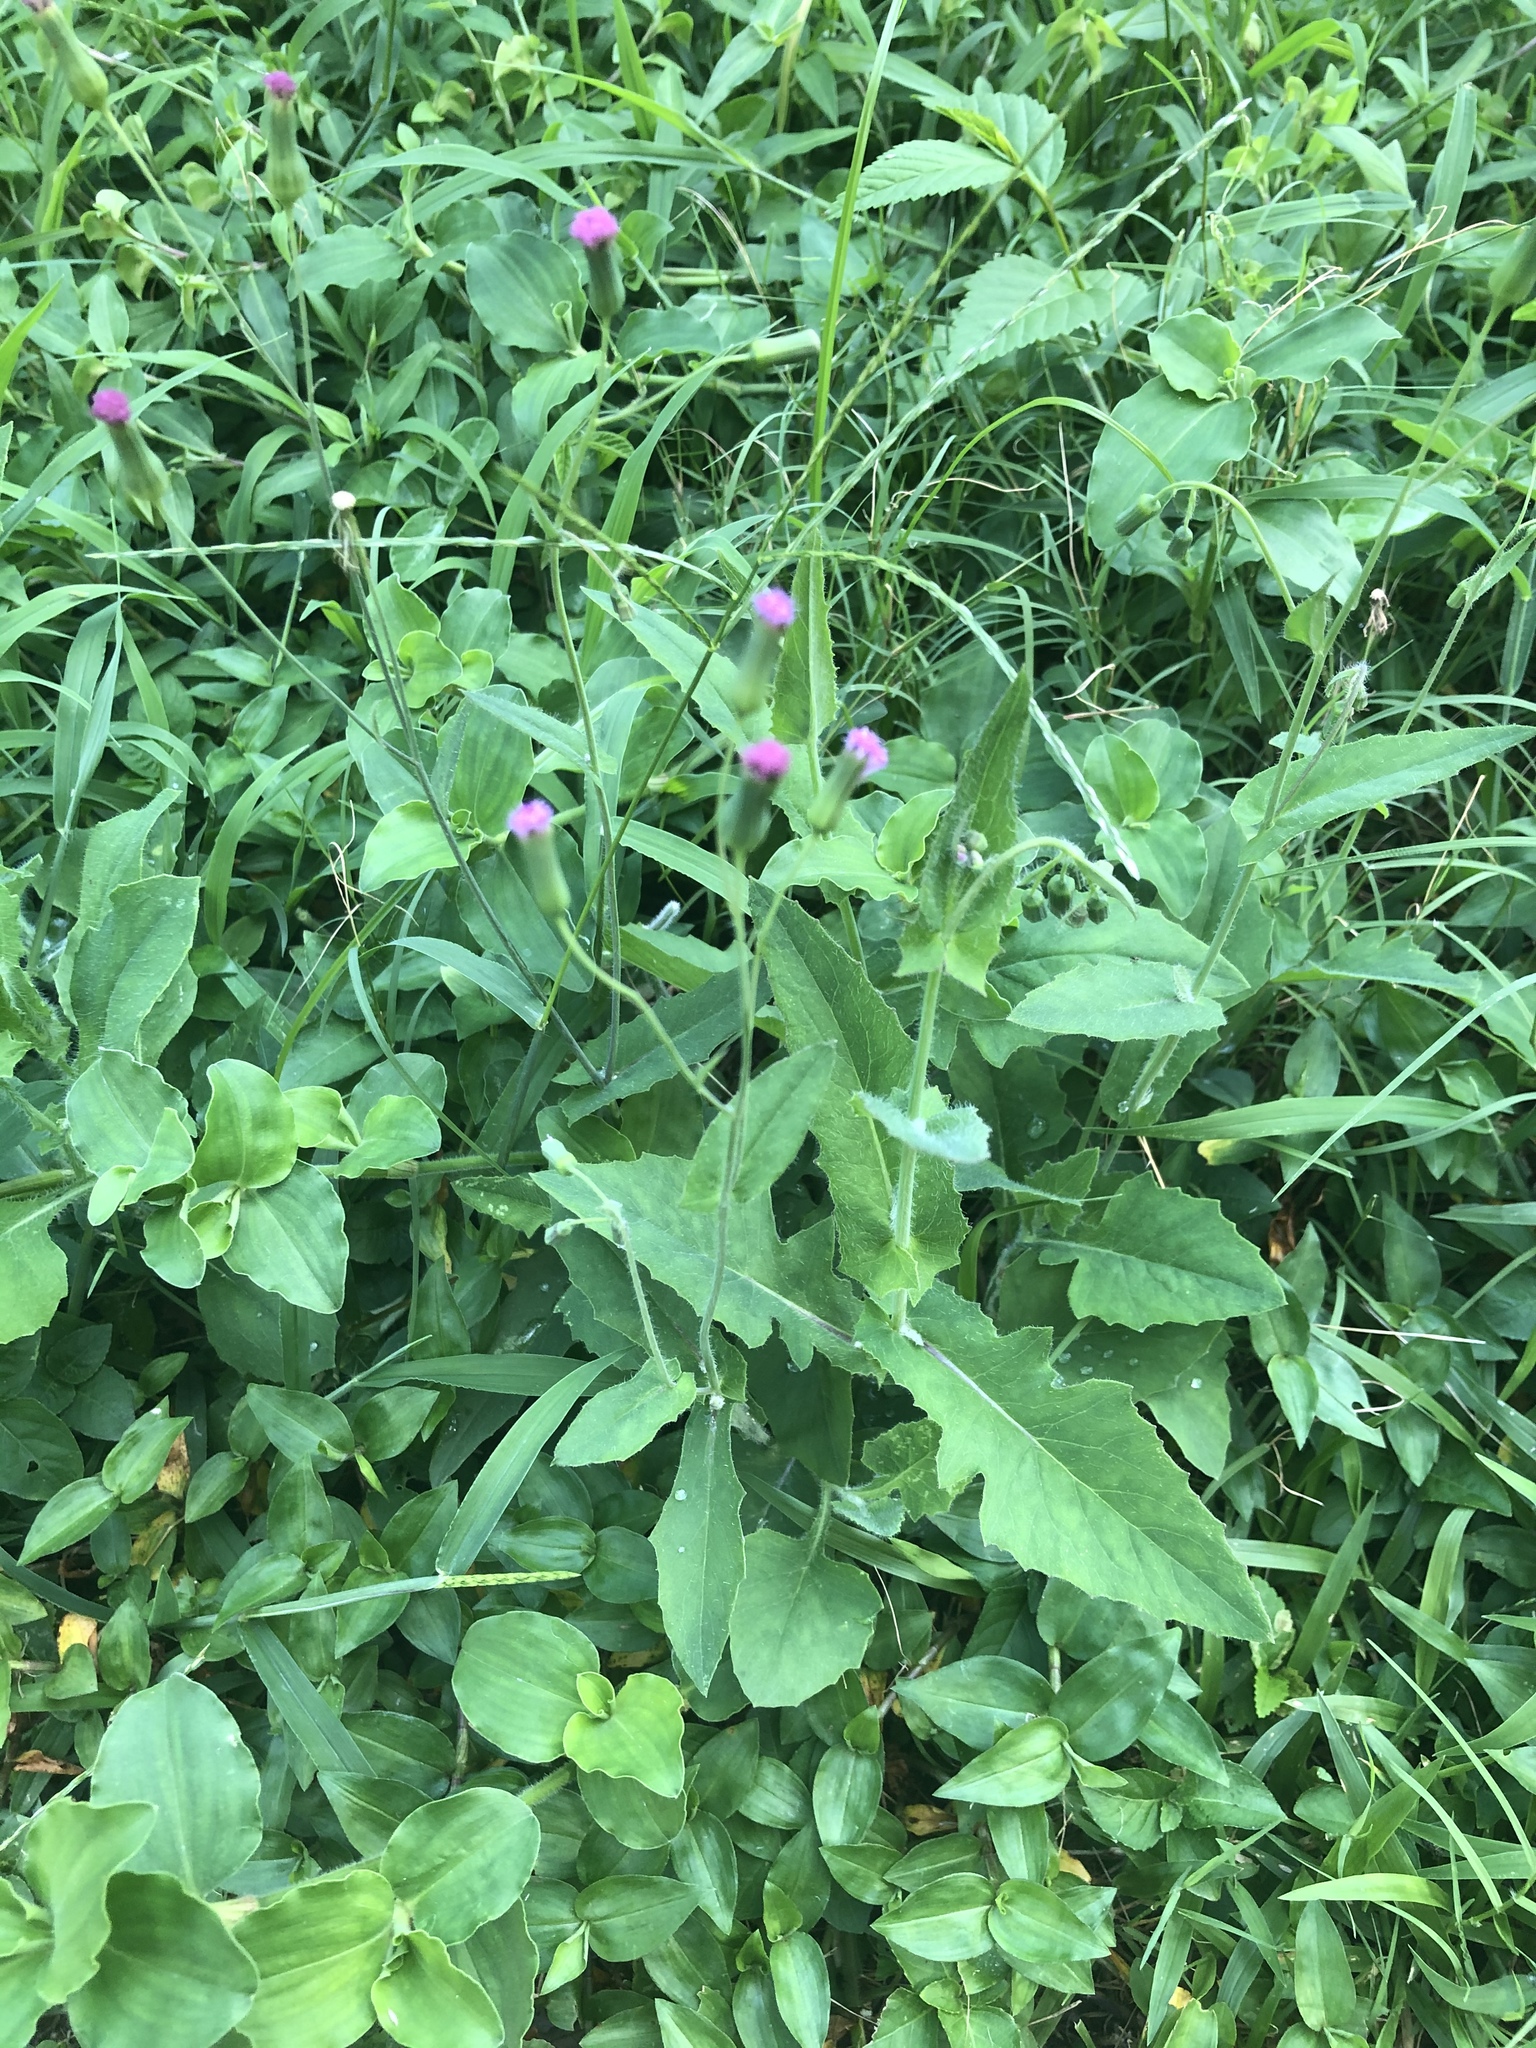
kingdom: Plantae
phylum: Tracheophyta
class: Magnoliopsida
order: Asterales
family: Asteraceae
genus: Emilia
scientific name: Emilia sonchifolia
